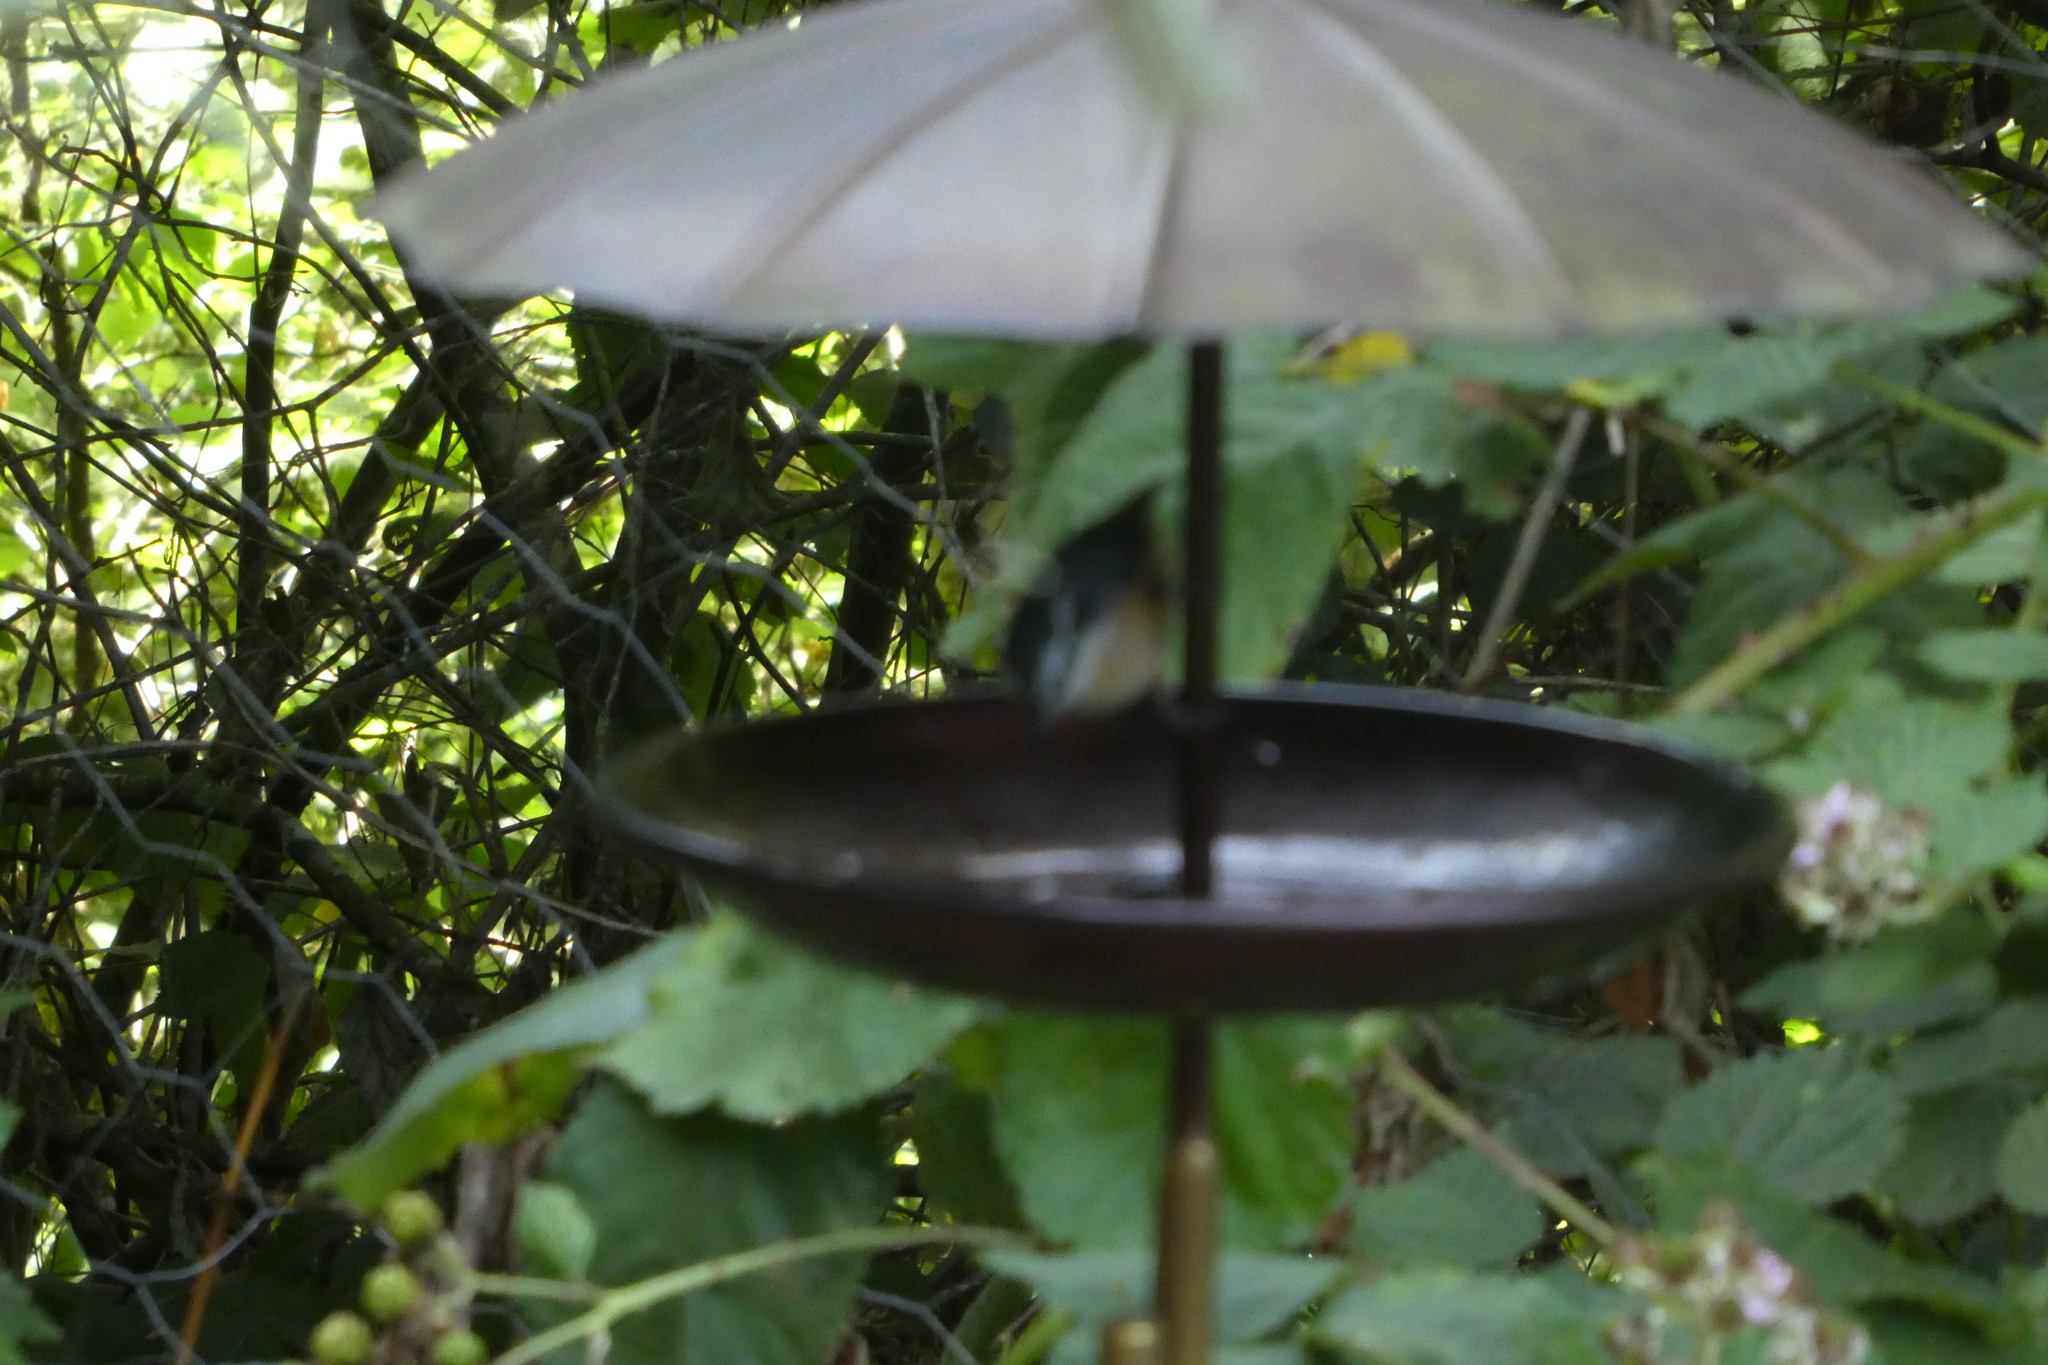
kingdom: Animalia
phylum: Chordata
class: Aves
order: Passeriformes
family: Sittidae
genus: Sitta
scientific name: Sitta canadensis
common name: Red-breasted nuthatch
